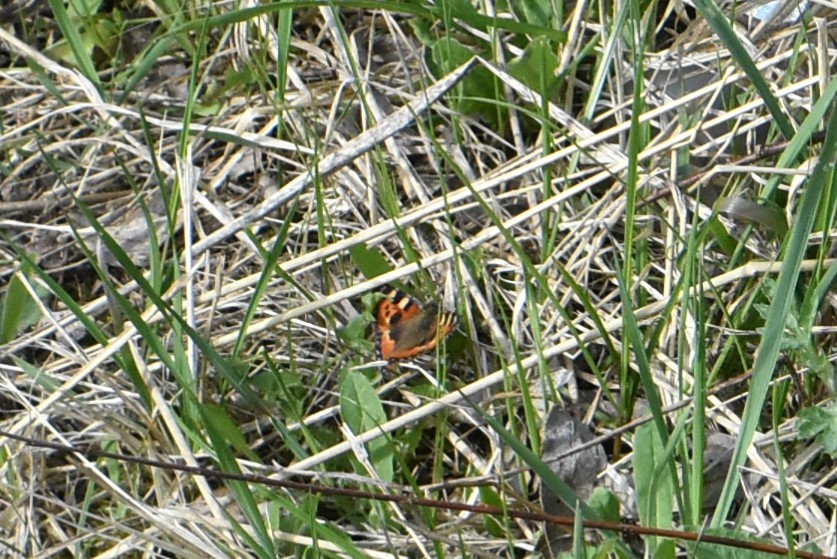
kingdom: Animalia
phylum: Arthropoda
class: Insecta
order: Lepidoptera
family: Nymphalidae
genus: Aglais
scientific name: Aglais urticae
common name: Small tortoiseshell
